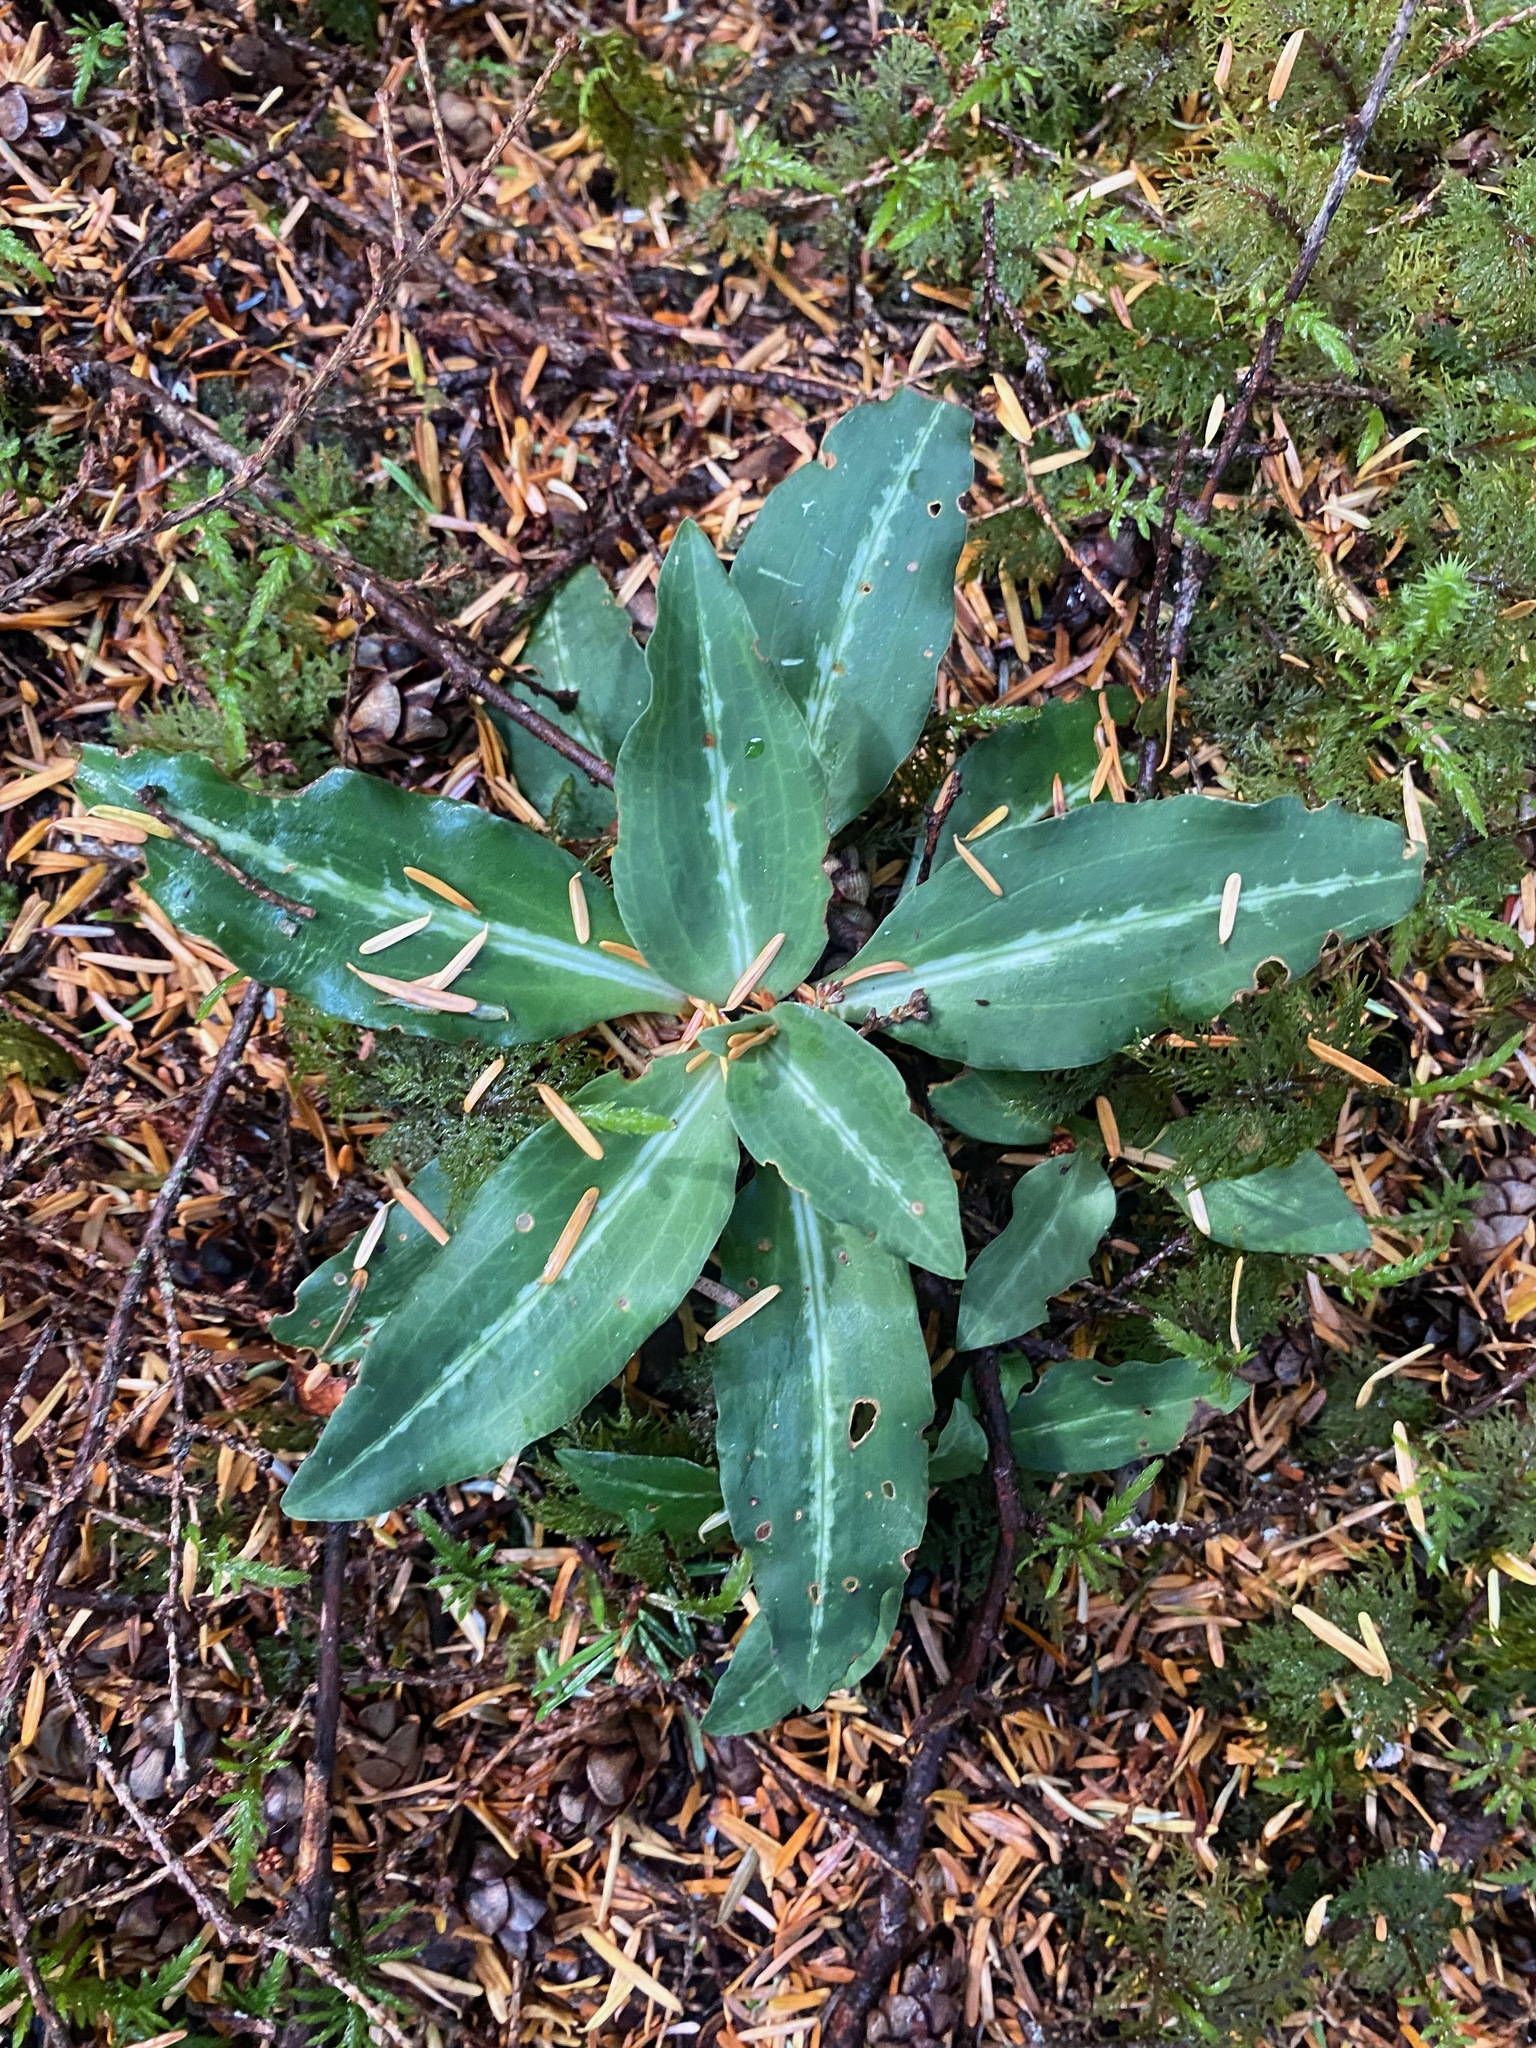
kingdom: Plantae
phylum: Tracheophyta
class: Liliopsida
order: Asparagales
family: Orchidaceae
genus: Goodyera
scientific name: Goodyera oblongifolia
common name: Giant rattlesnake-plantain
